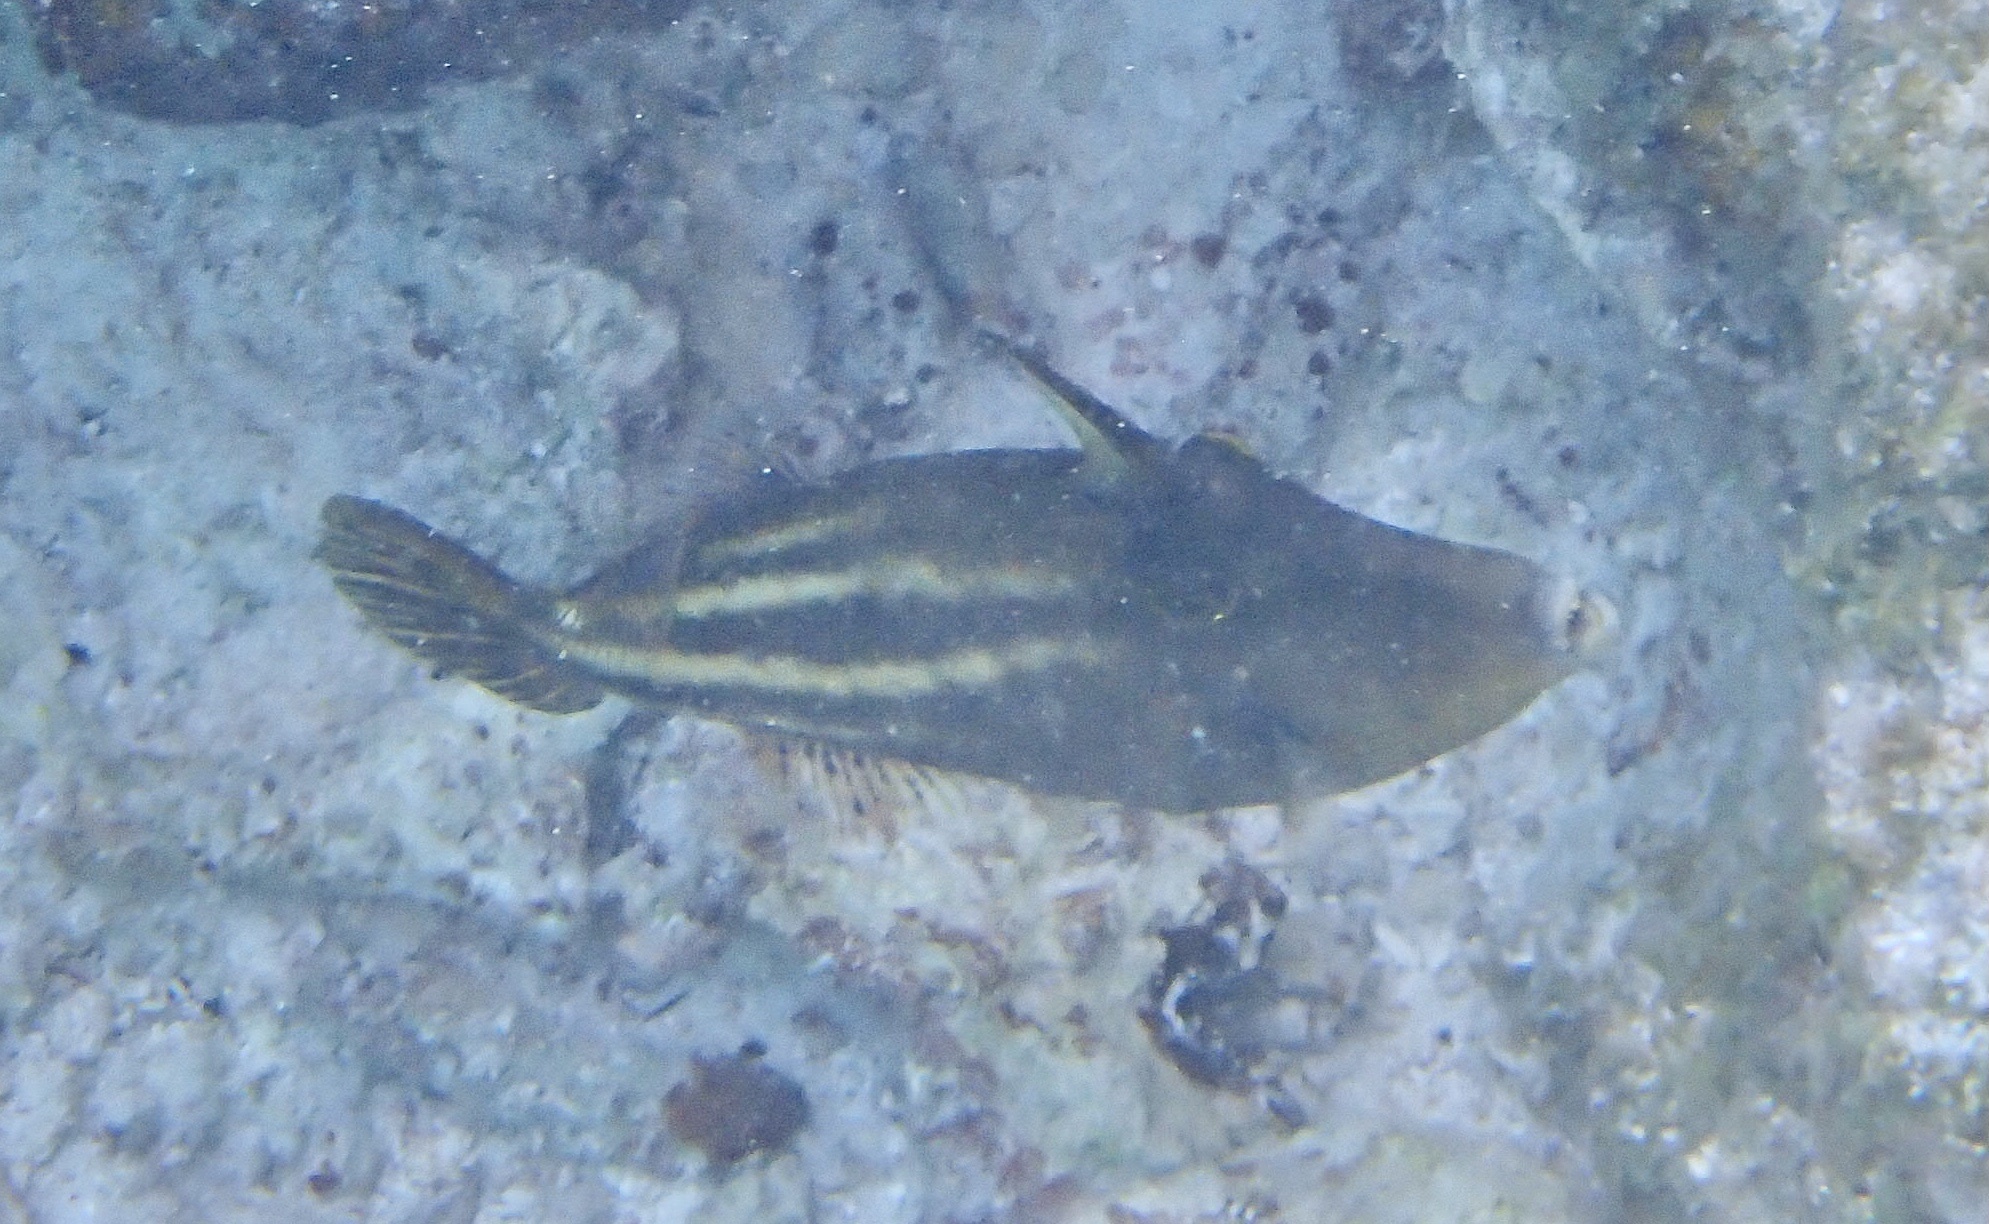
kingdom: Animalia
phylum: Chordata
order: Tetraodontiformes
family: Monacanthidae
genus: Cantherhines
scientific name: Cantherhines pullus
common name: Orangespotted filefish
